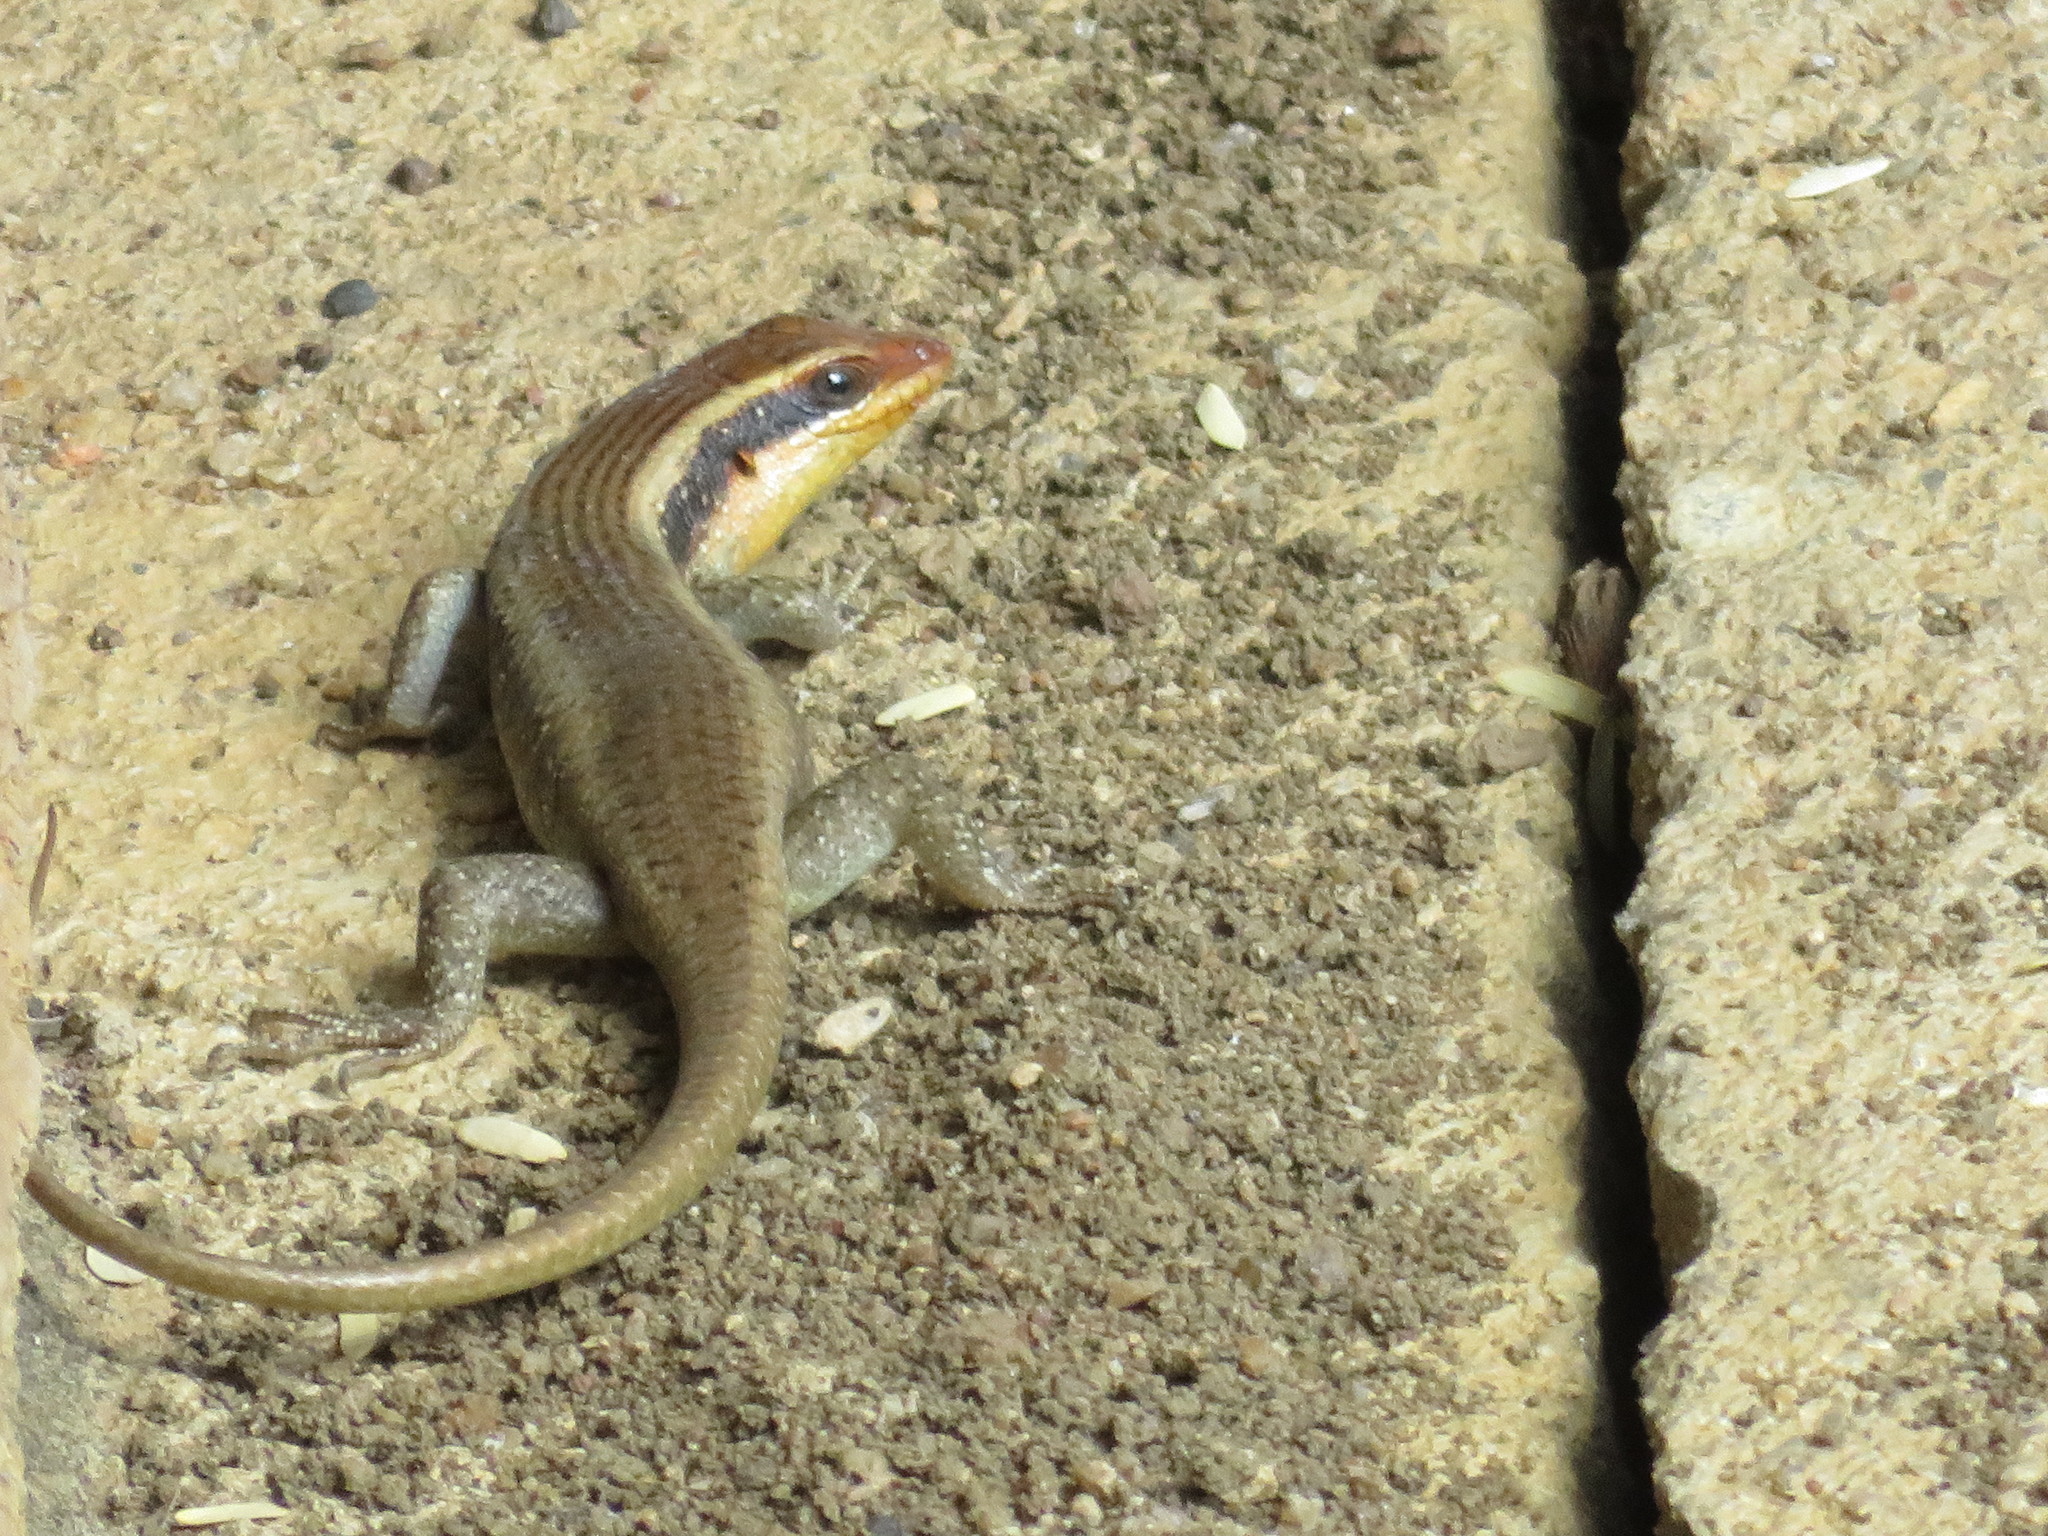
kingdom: Animalia
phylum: Chordata
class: Squamata
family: Scincidae
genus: Trachylepis
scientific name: Trachylepis wahlbergii
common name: Wahlberg’s striped skink
